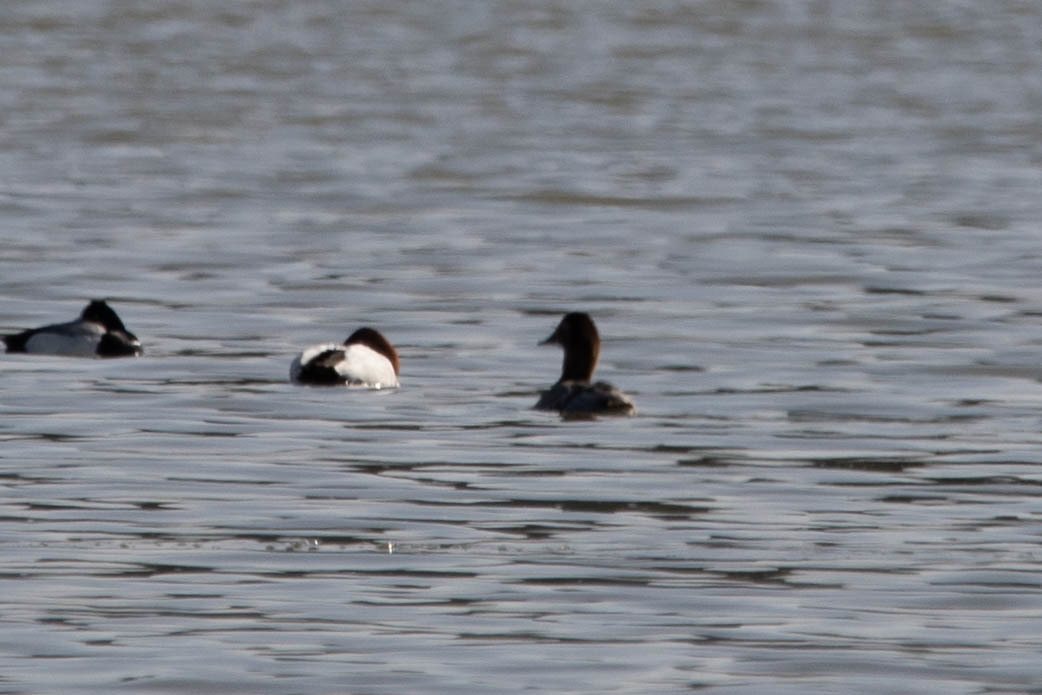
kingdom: Animalia
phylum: Chordata
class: Aves
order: Anseriformes
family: Anatidae
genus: Aythya
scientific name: Aythya valisineria
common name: Canvasback
